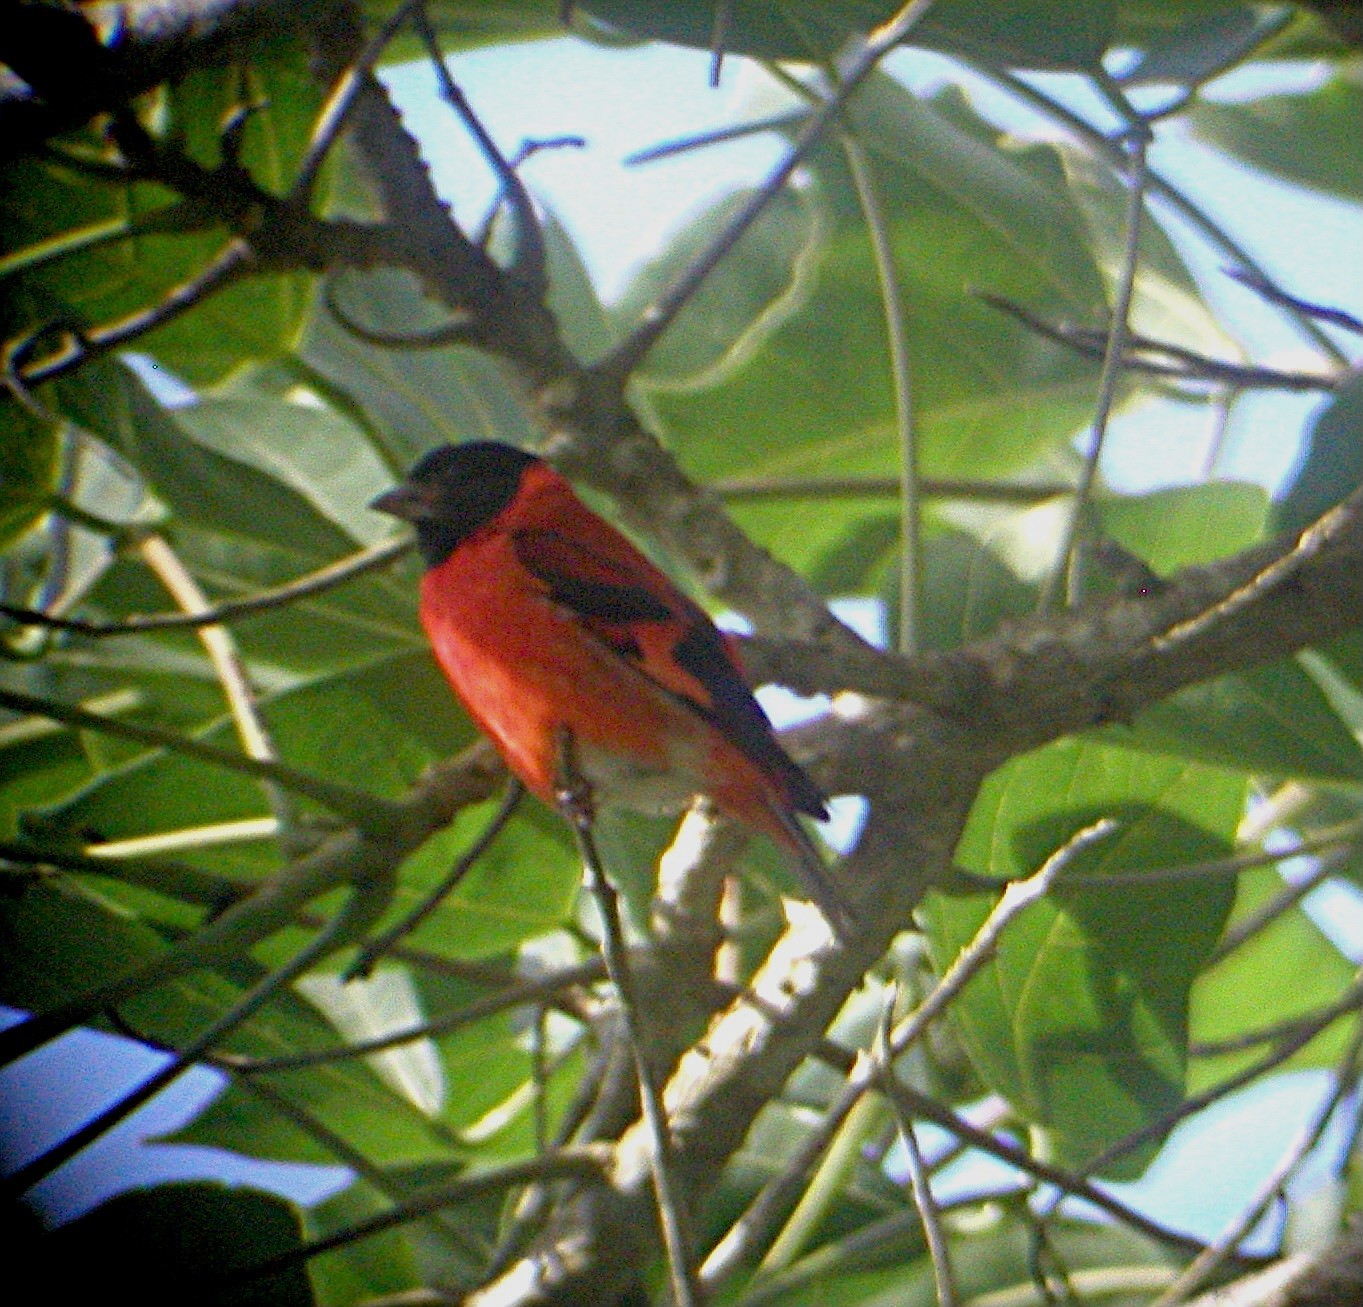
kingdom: Animalia
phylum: Chordata
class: Aves
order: Passeriformes
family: Fringillidae
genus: Spinus
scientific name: Spinus cucullatus
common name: Red siskin
